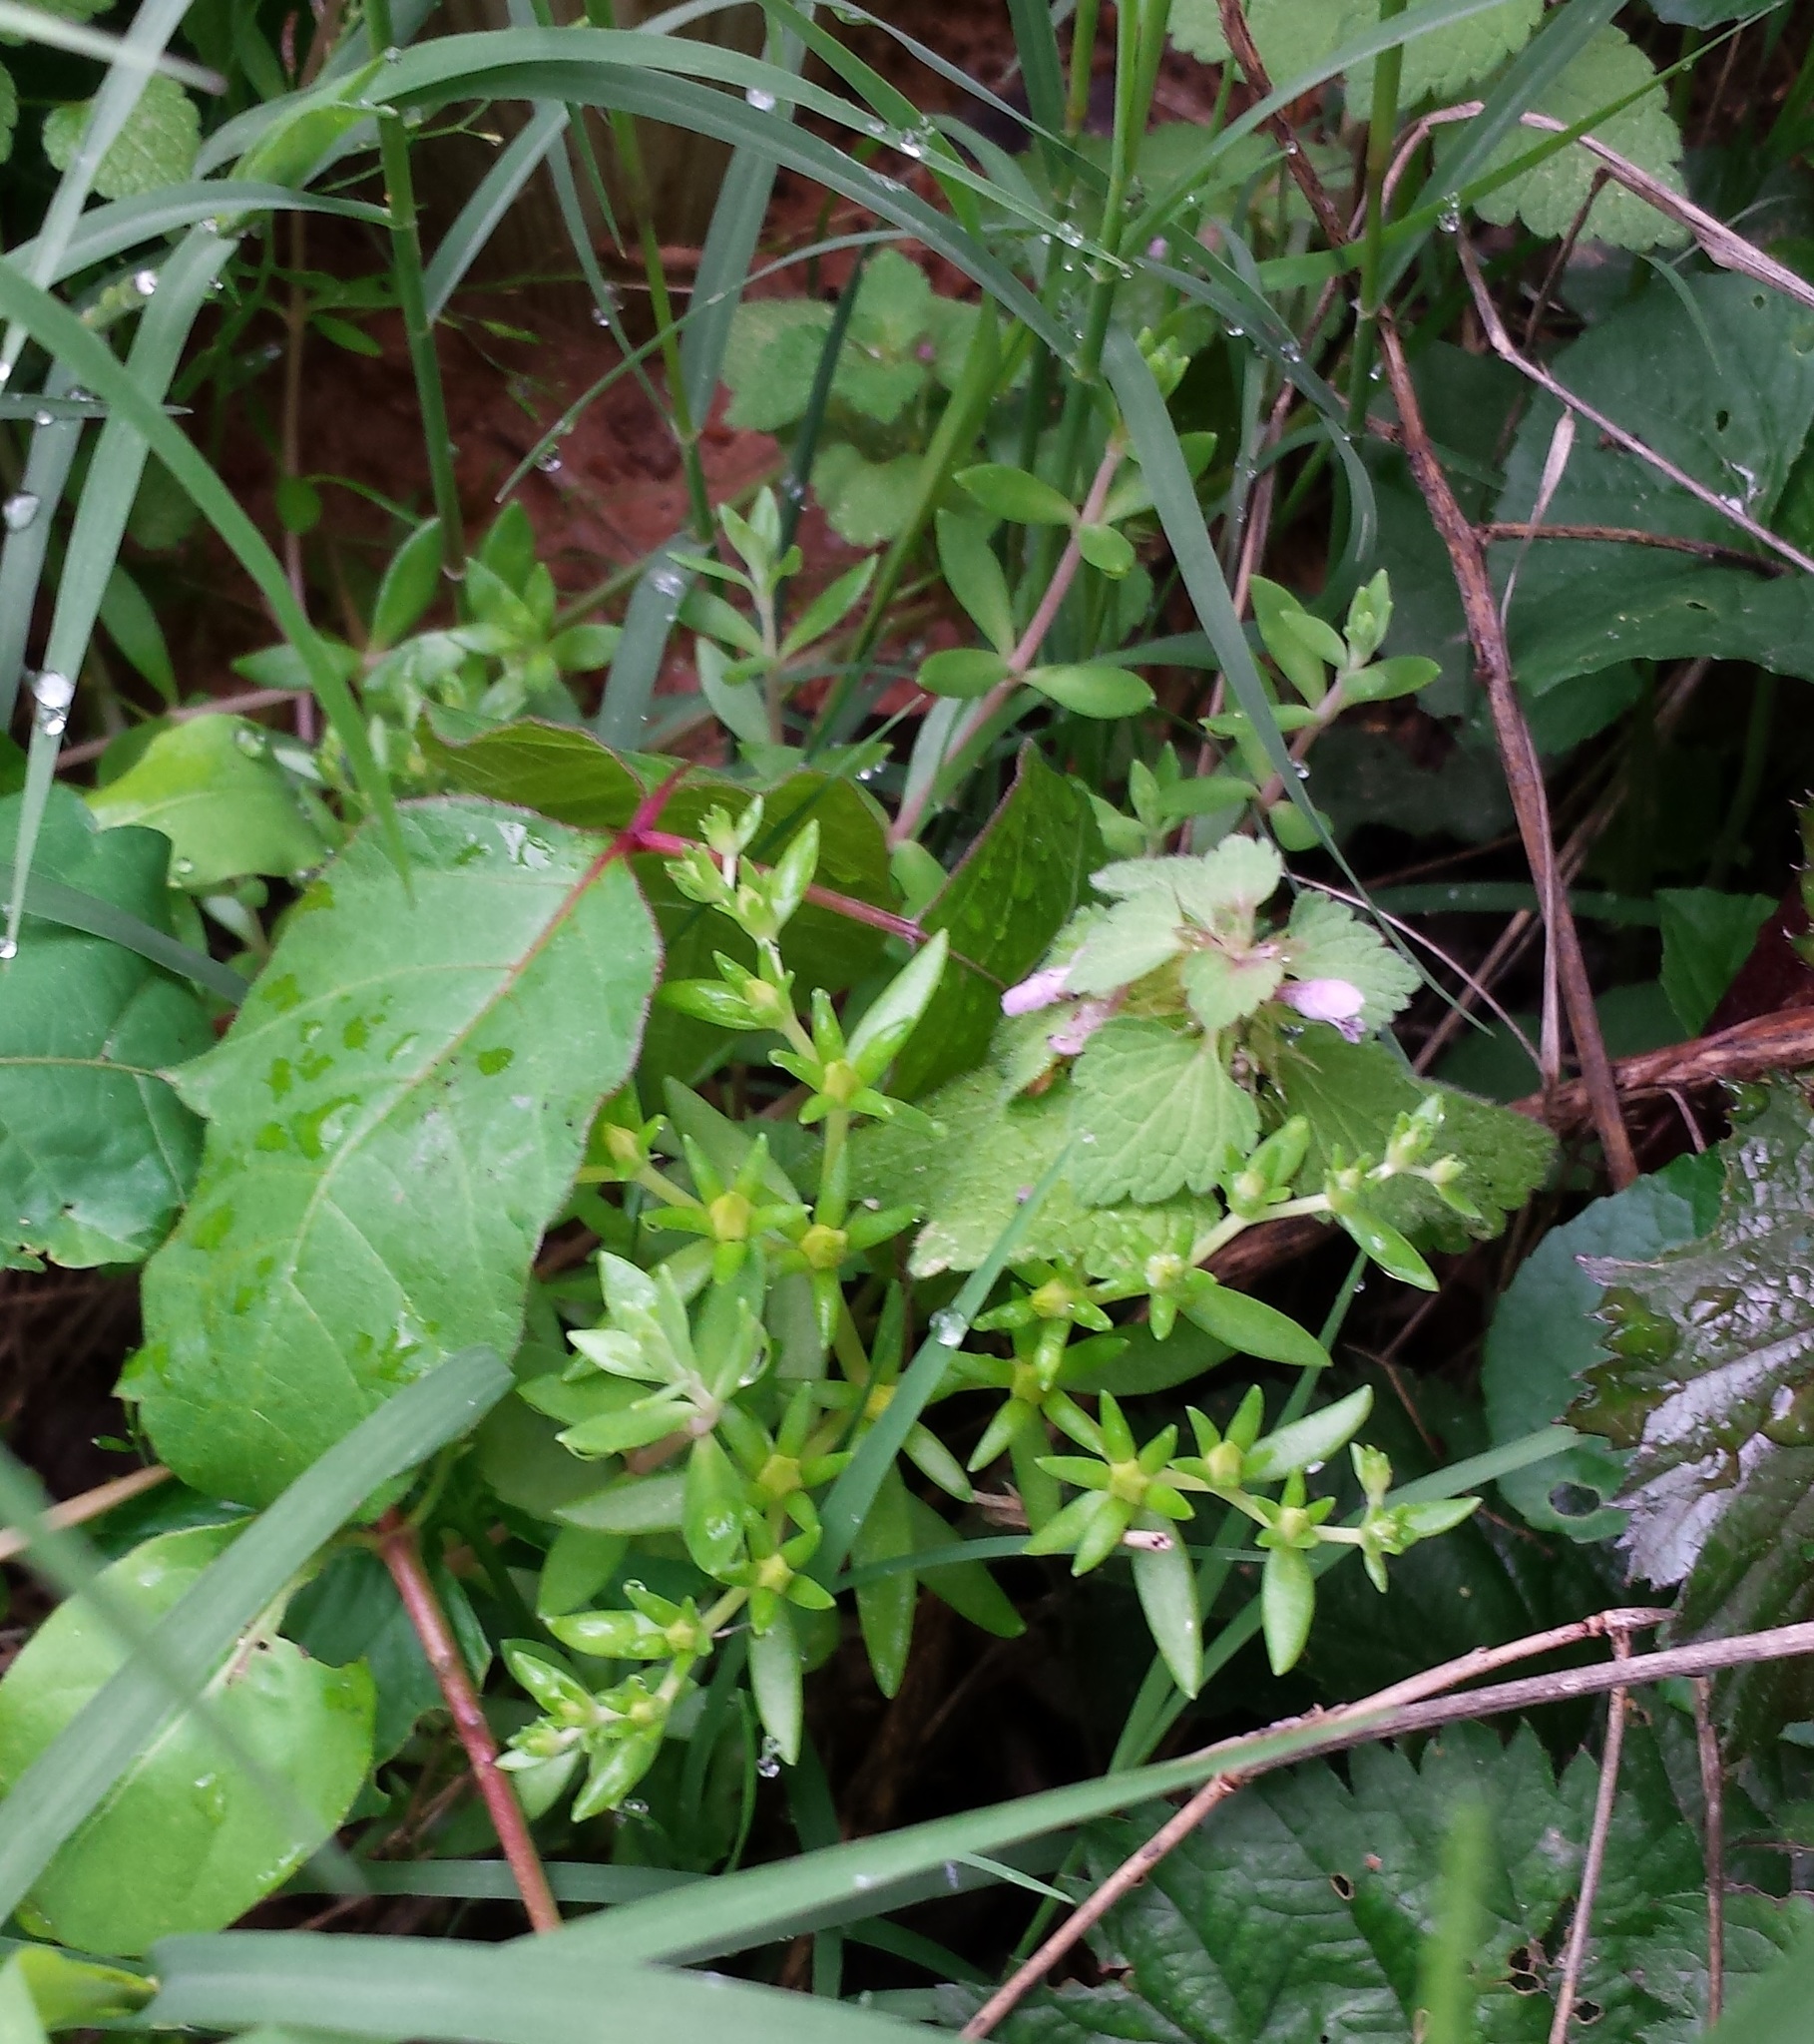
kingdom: Plantae
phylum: Tracheophyta
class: Magnoliopsida
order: Saxifragales
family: Crassulaceae
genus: Sedum
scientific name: Sedum sarmentosum
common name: Stringy stonecrop
